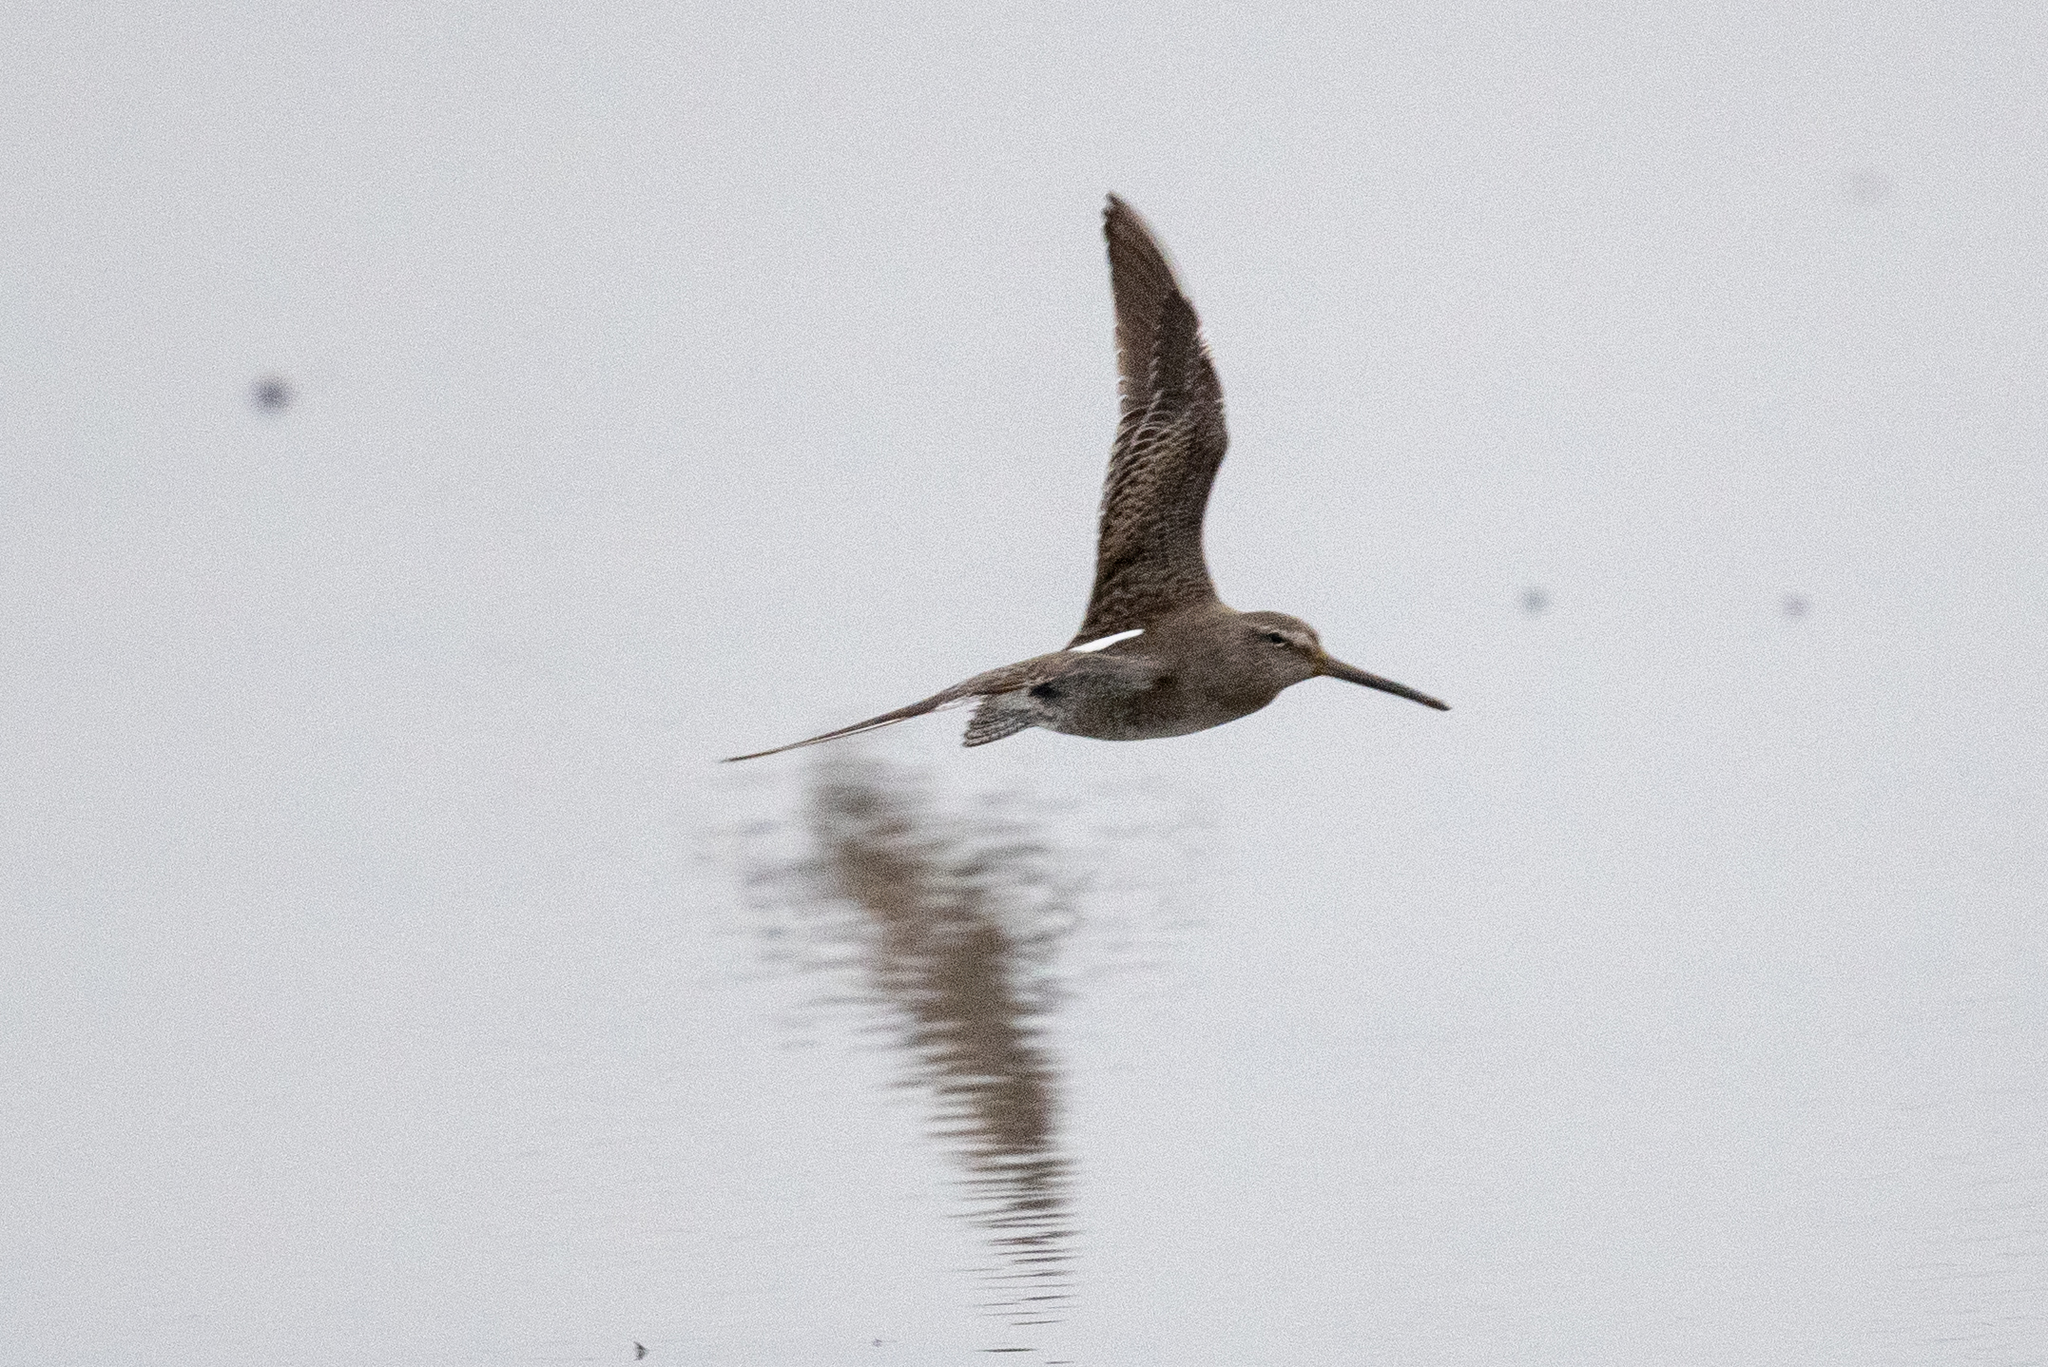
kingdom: Animalia
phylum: Chordata
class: Aves
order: Charadriiformes
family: Scolopacidae
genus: Limnodromus
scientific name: Limnodromus scolopaceus
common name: Long-billed dowitcher
